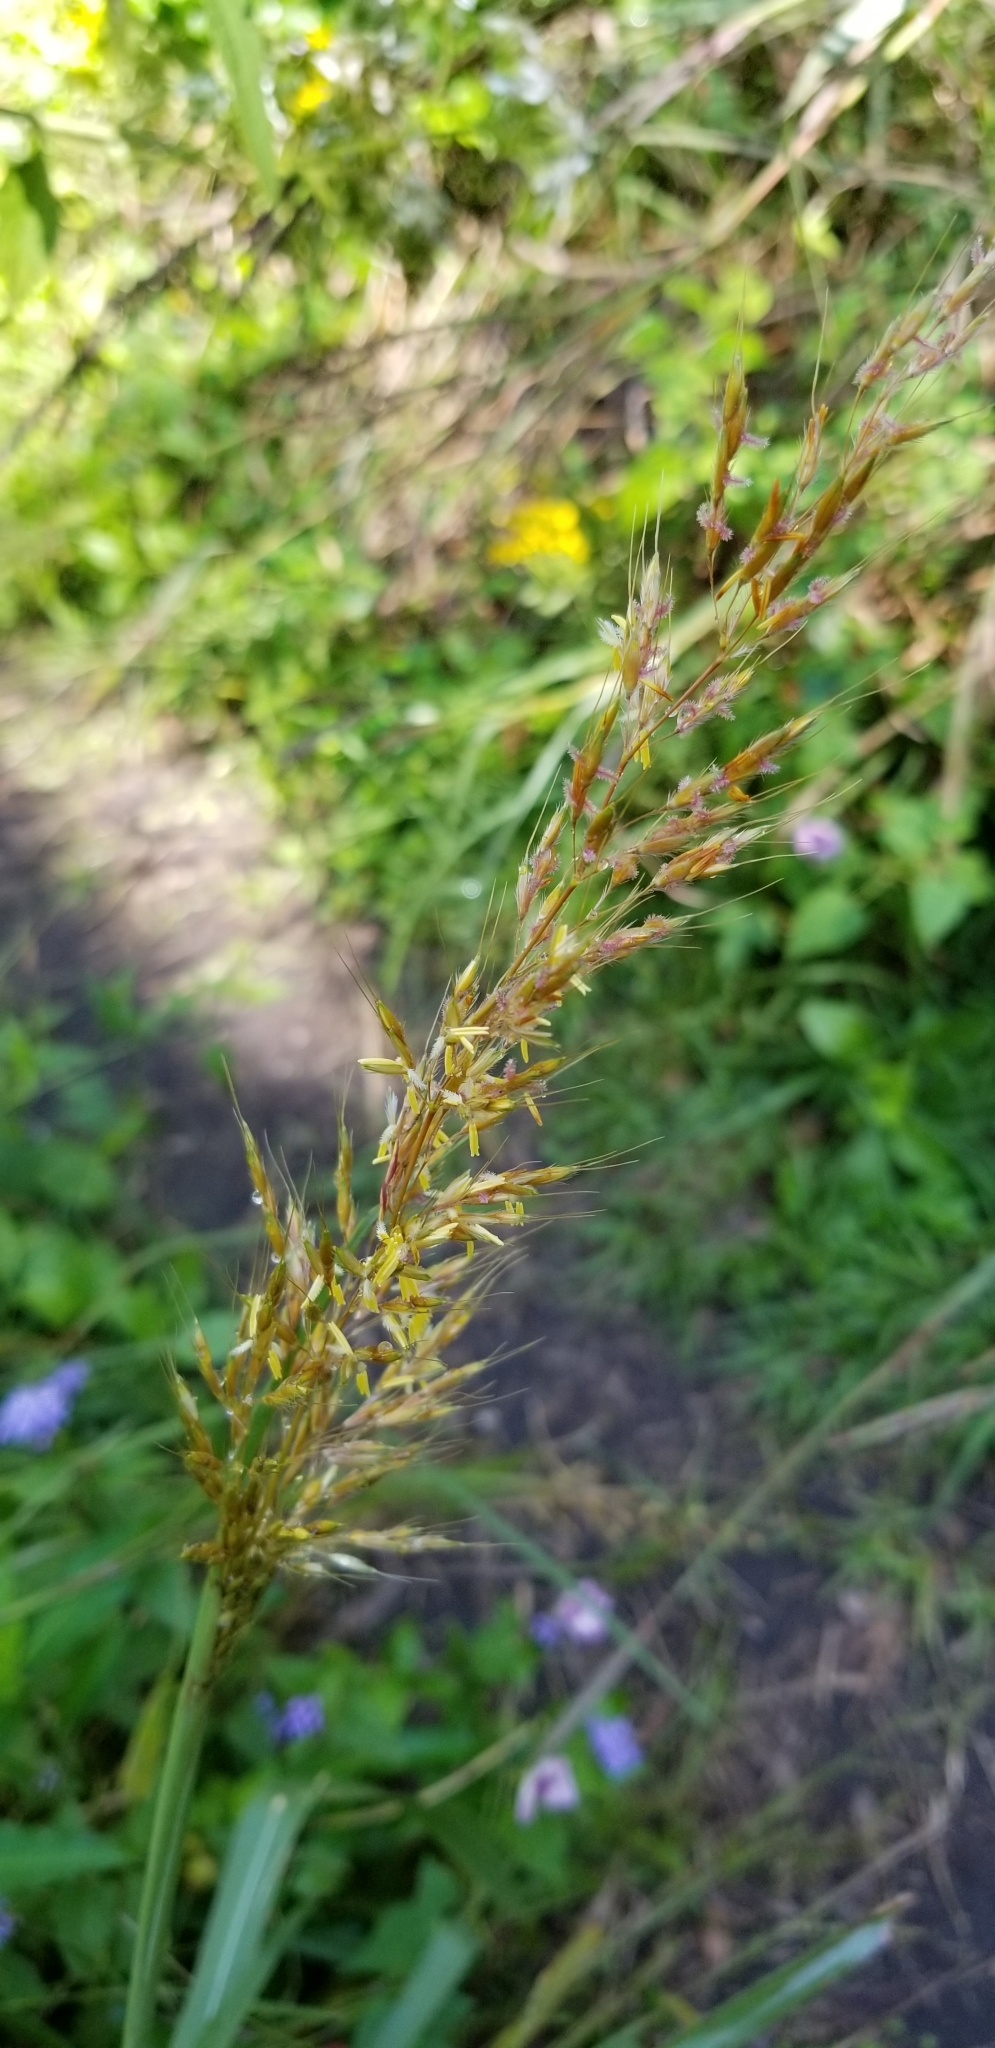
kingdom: Plantae
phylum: Tracheophyta
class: Liliopsida
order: Poales
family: Poaceae
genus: Sorghastrum
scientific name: Sorghastrum nutans
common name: Indian grass
